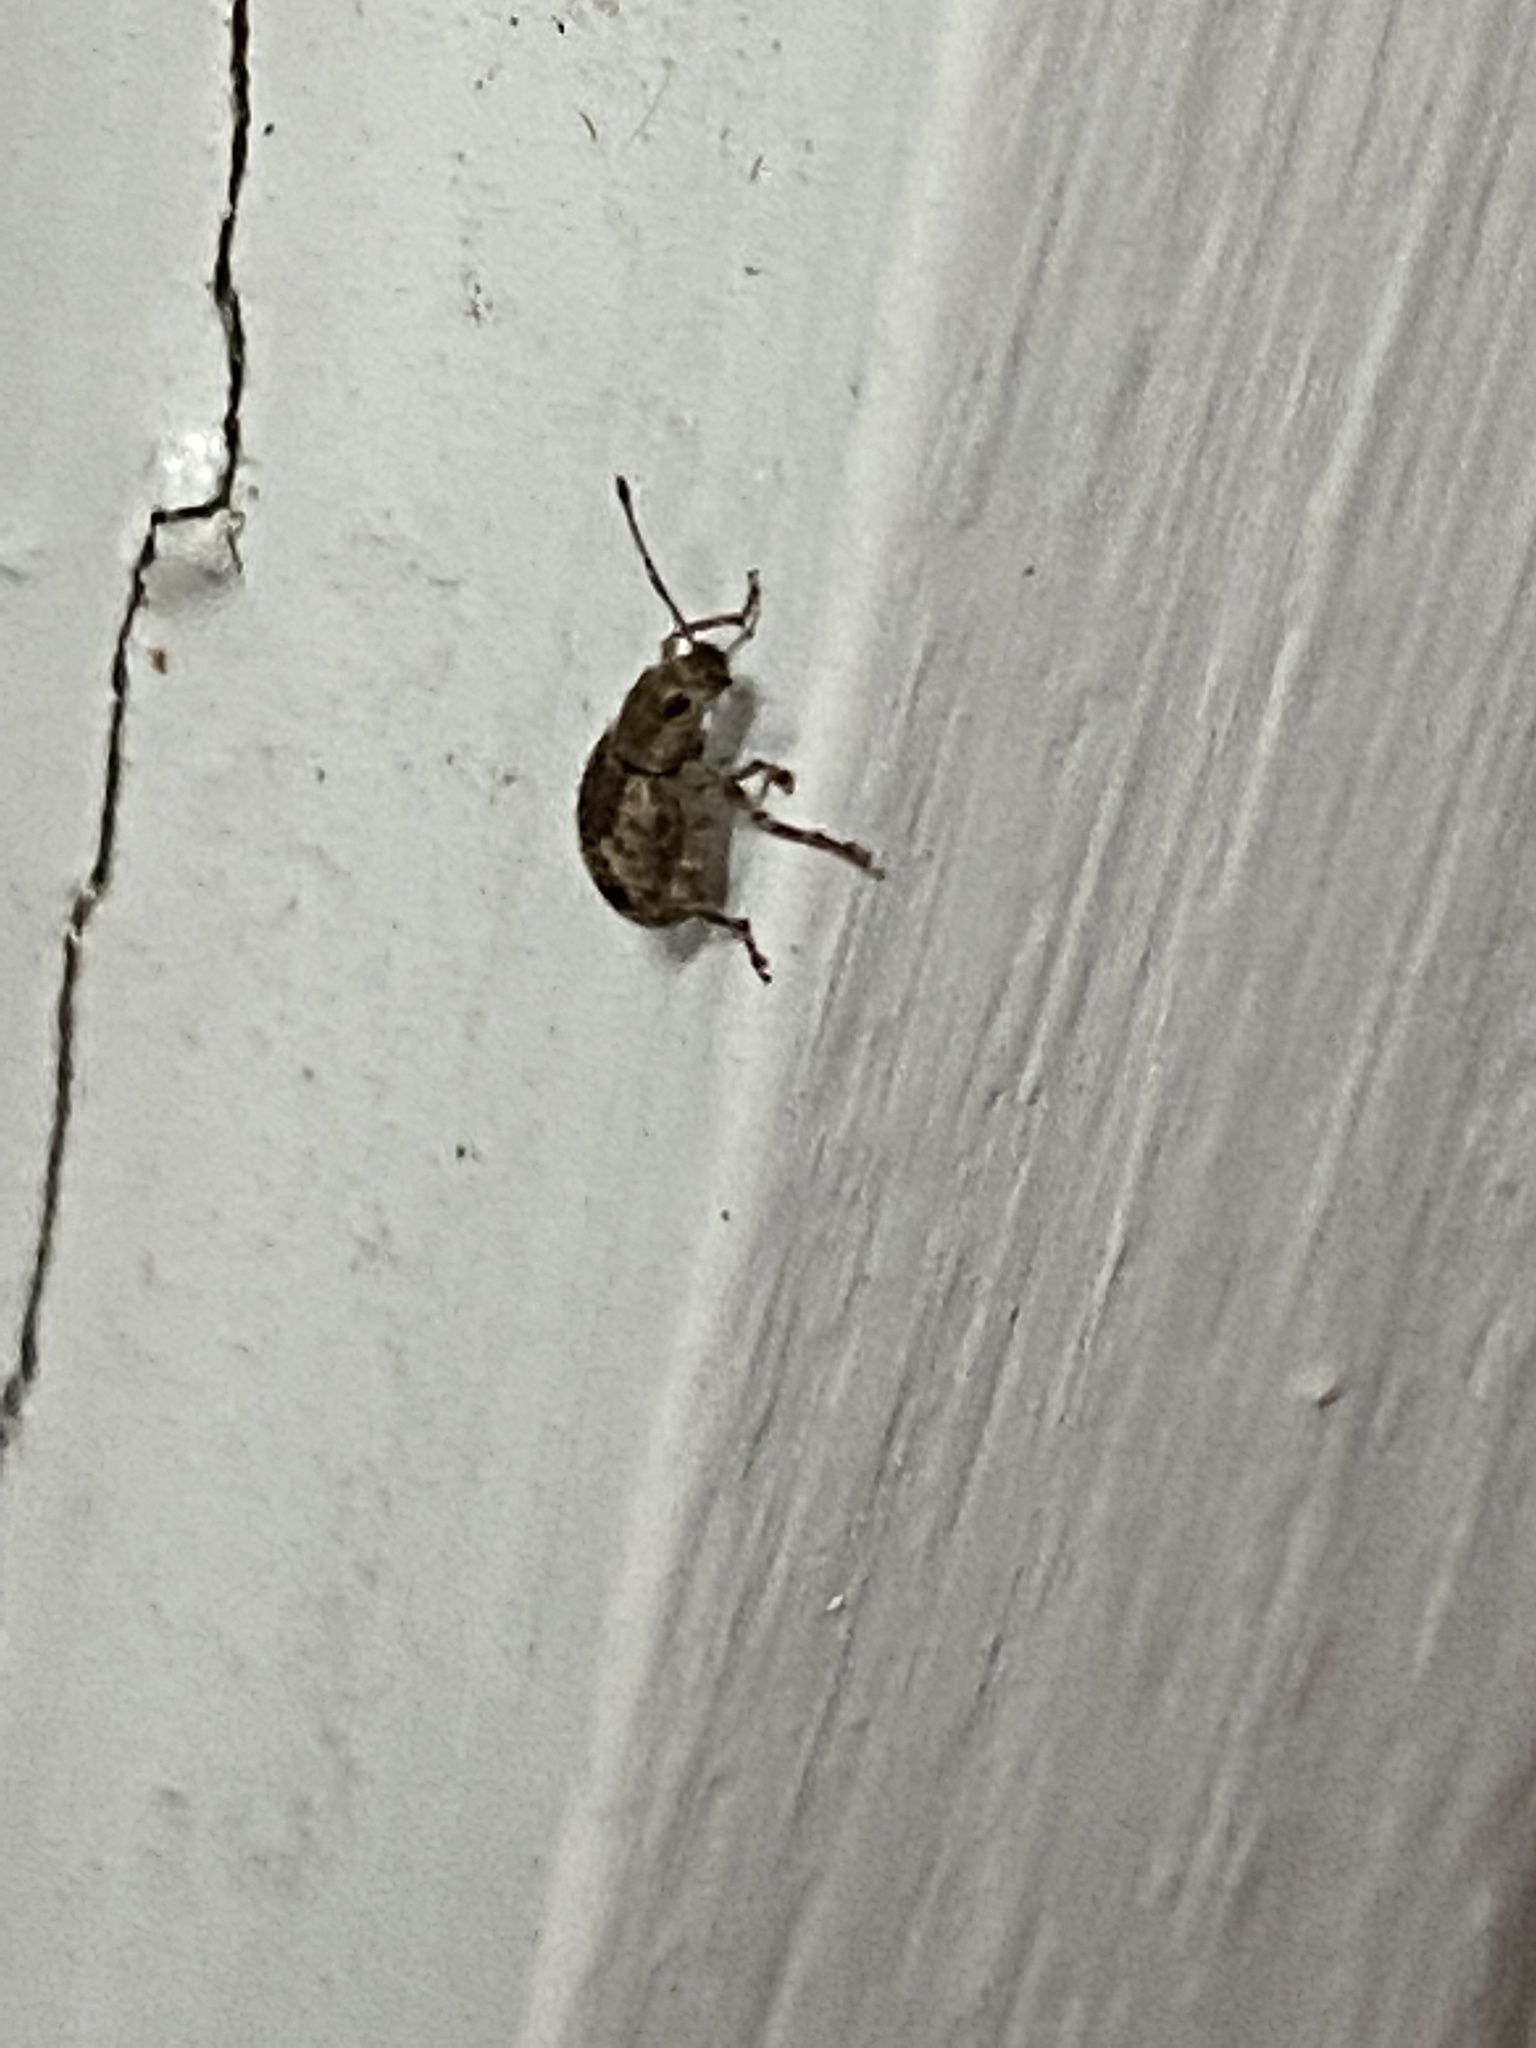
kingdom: Animalia
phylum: Arthropoda
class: Insecta
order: Coleoptera
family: Curculionidae
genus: Pseudoedophrys
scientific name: Pseudoedophrys hilleri
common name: Weevil
